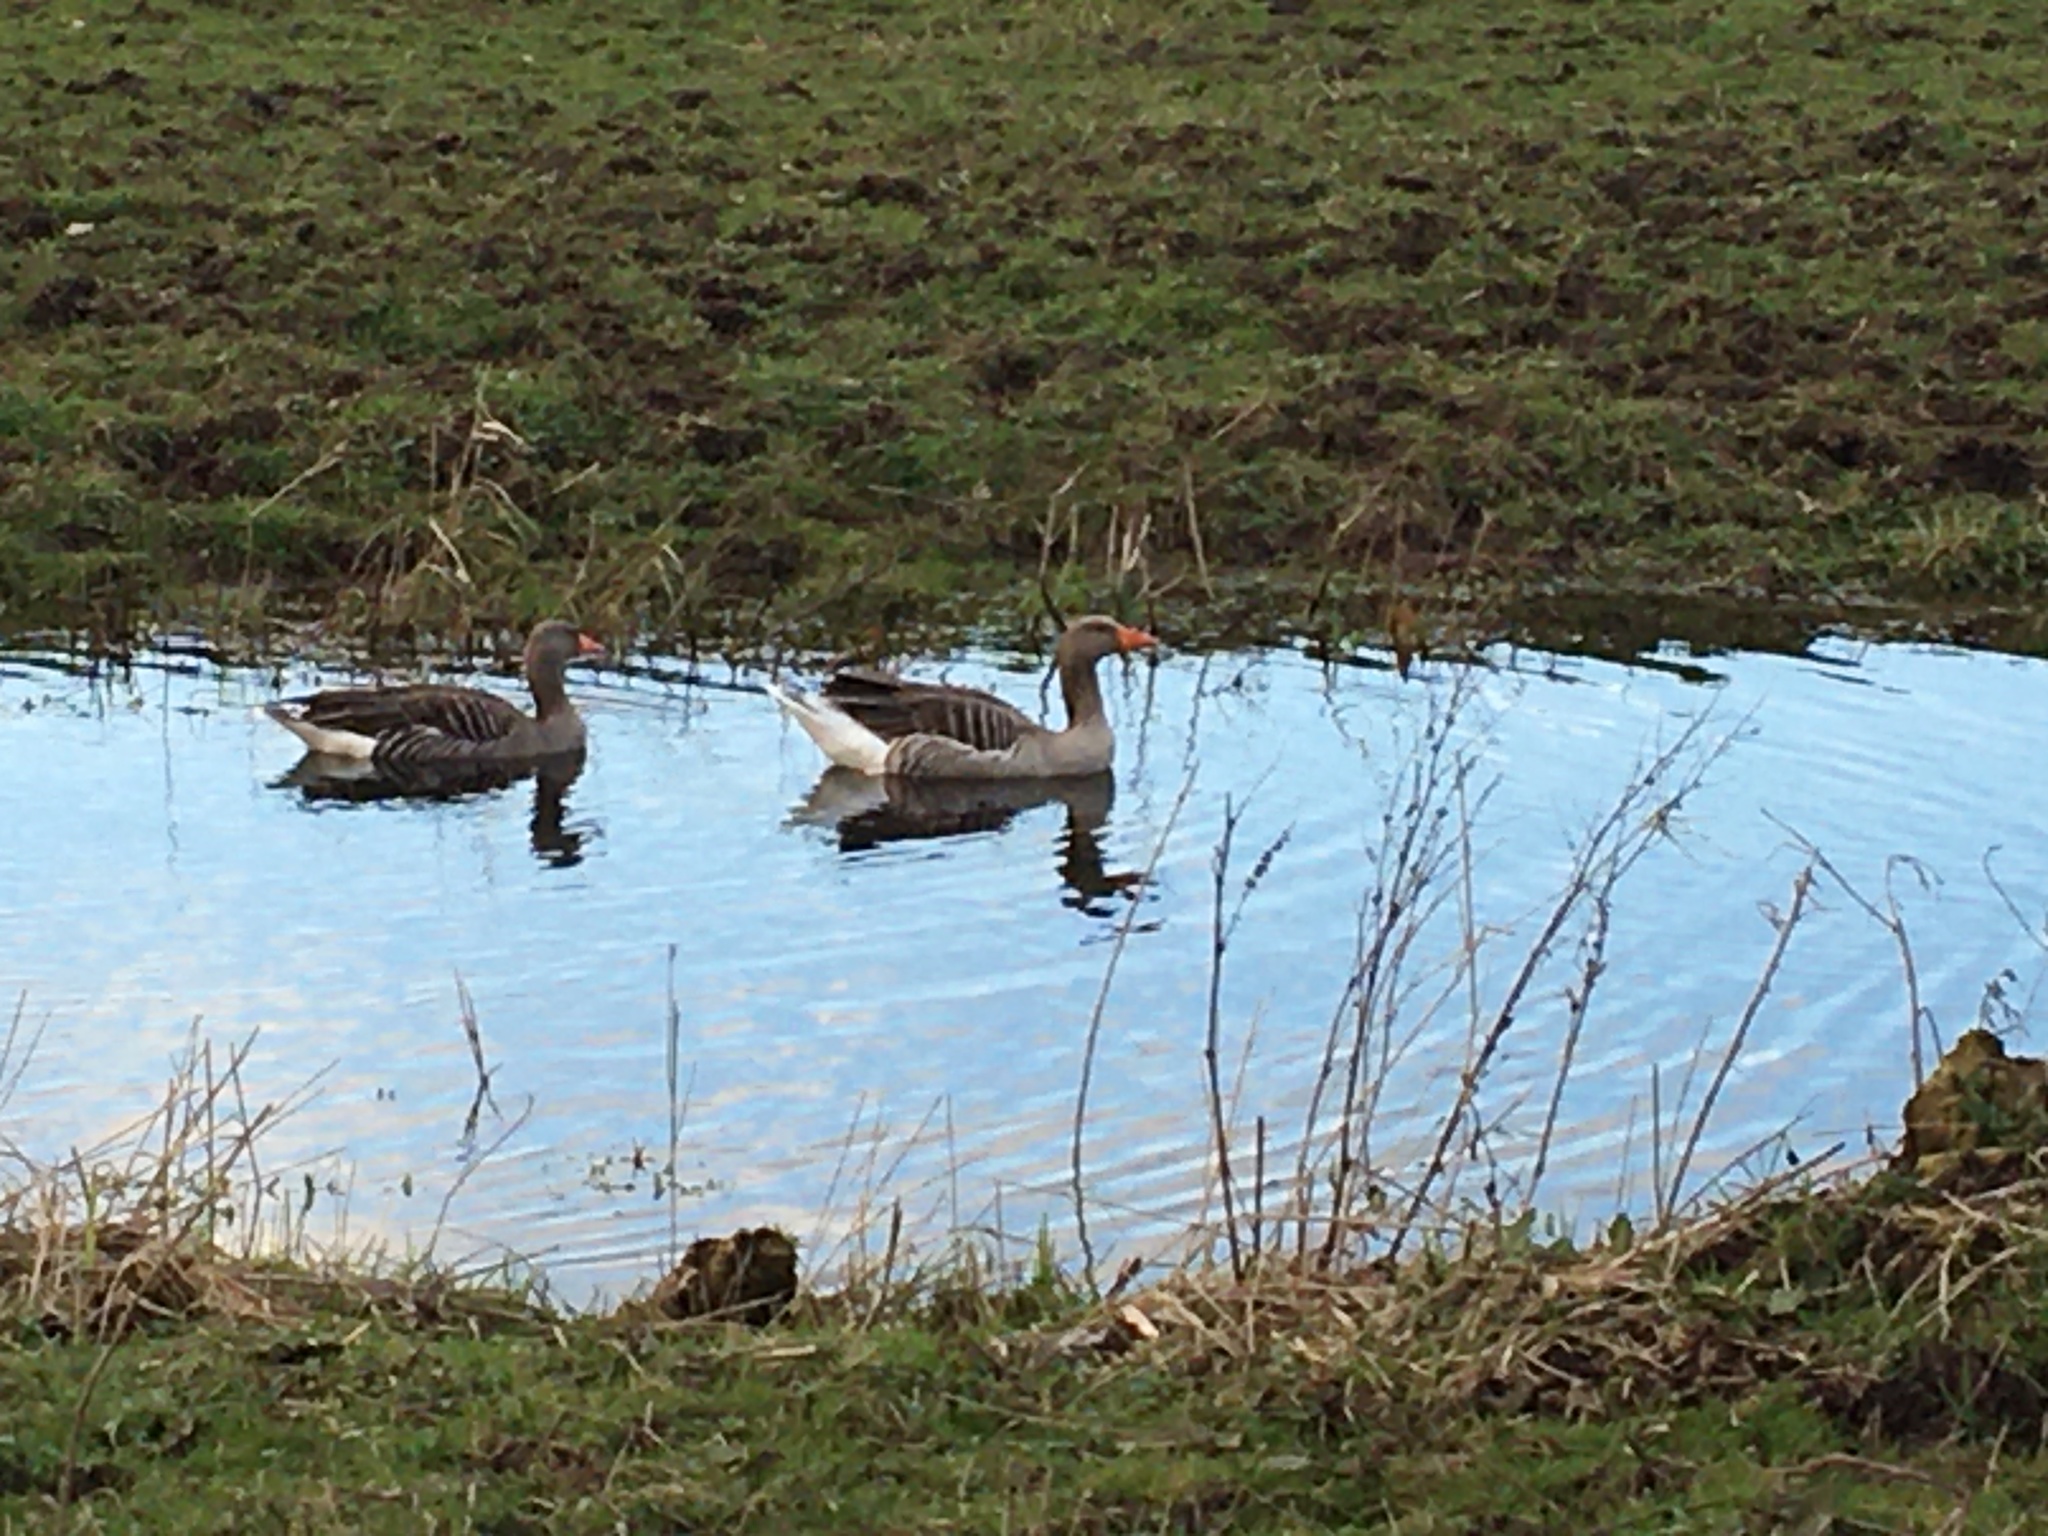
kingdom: Animalia
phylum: Chordata
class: Aves
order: Anseriformes
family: Anatidae
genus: Anser
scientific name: Anser anser
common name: Greylag goose
